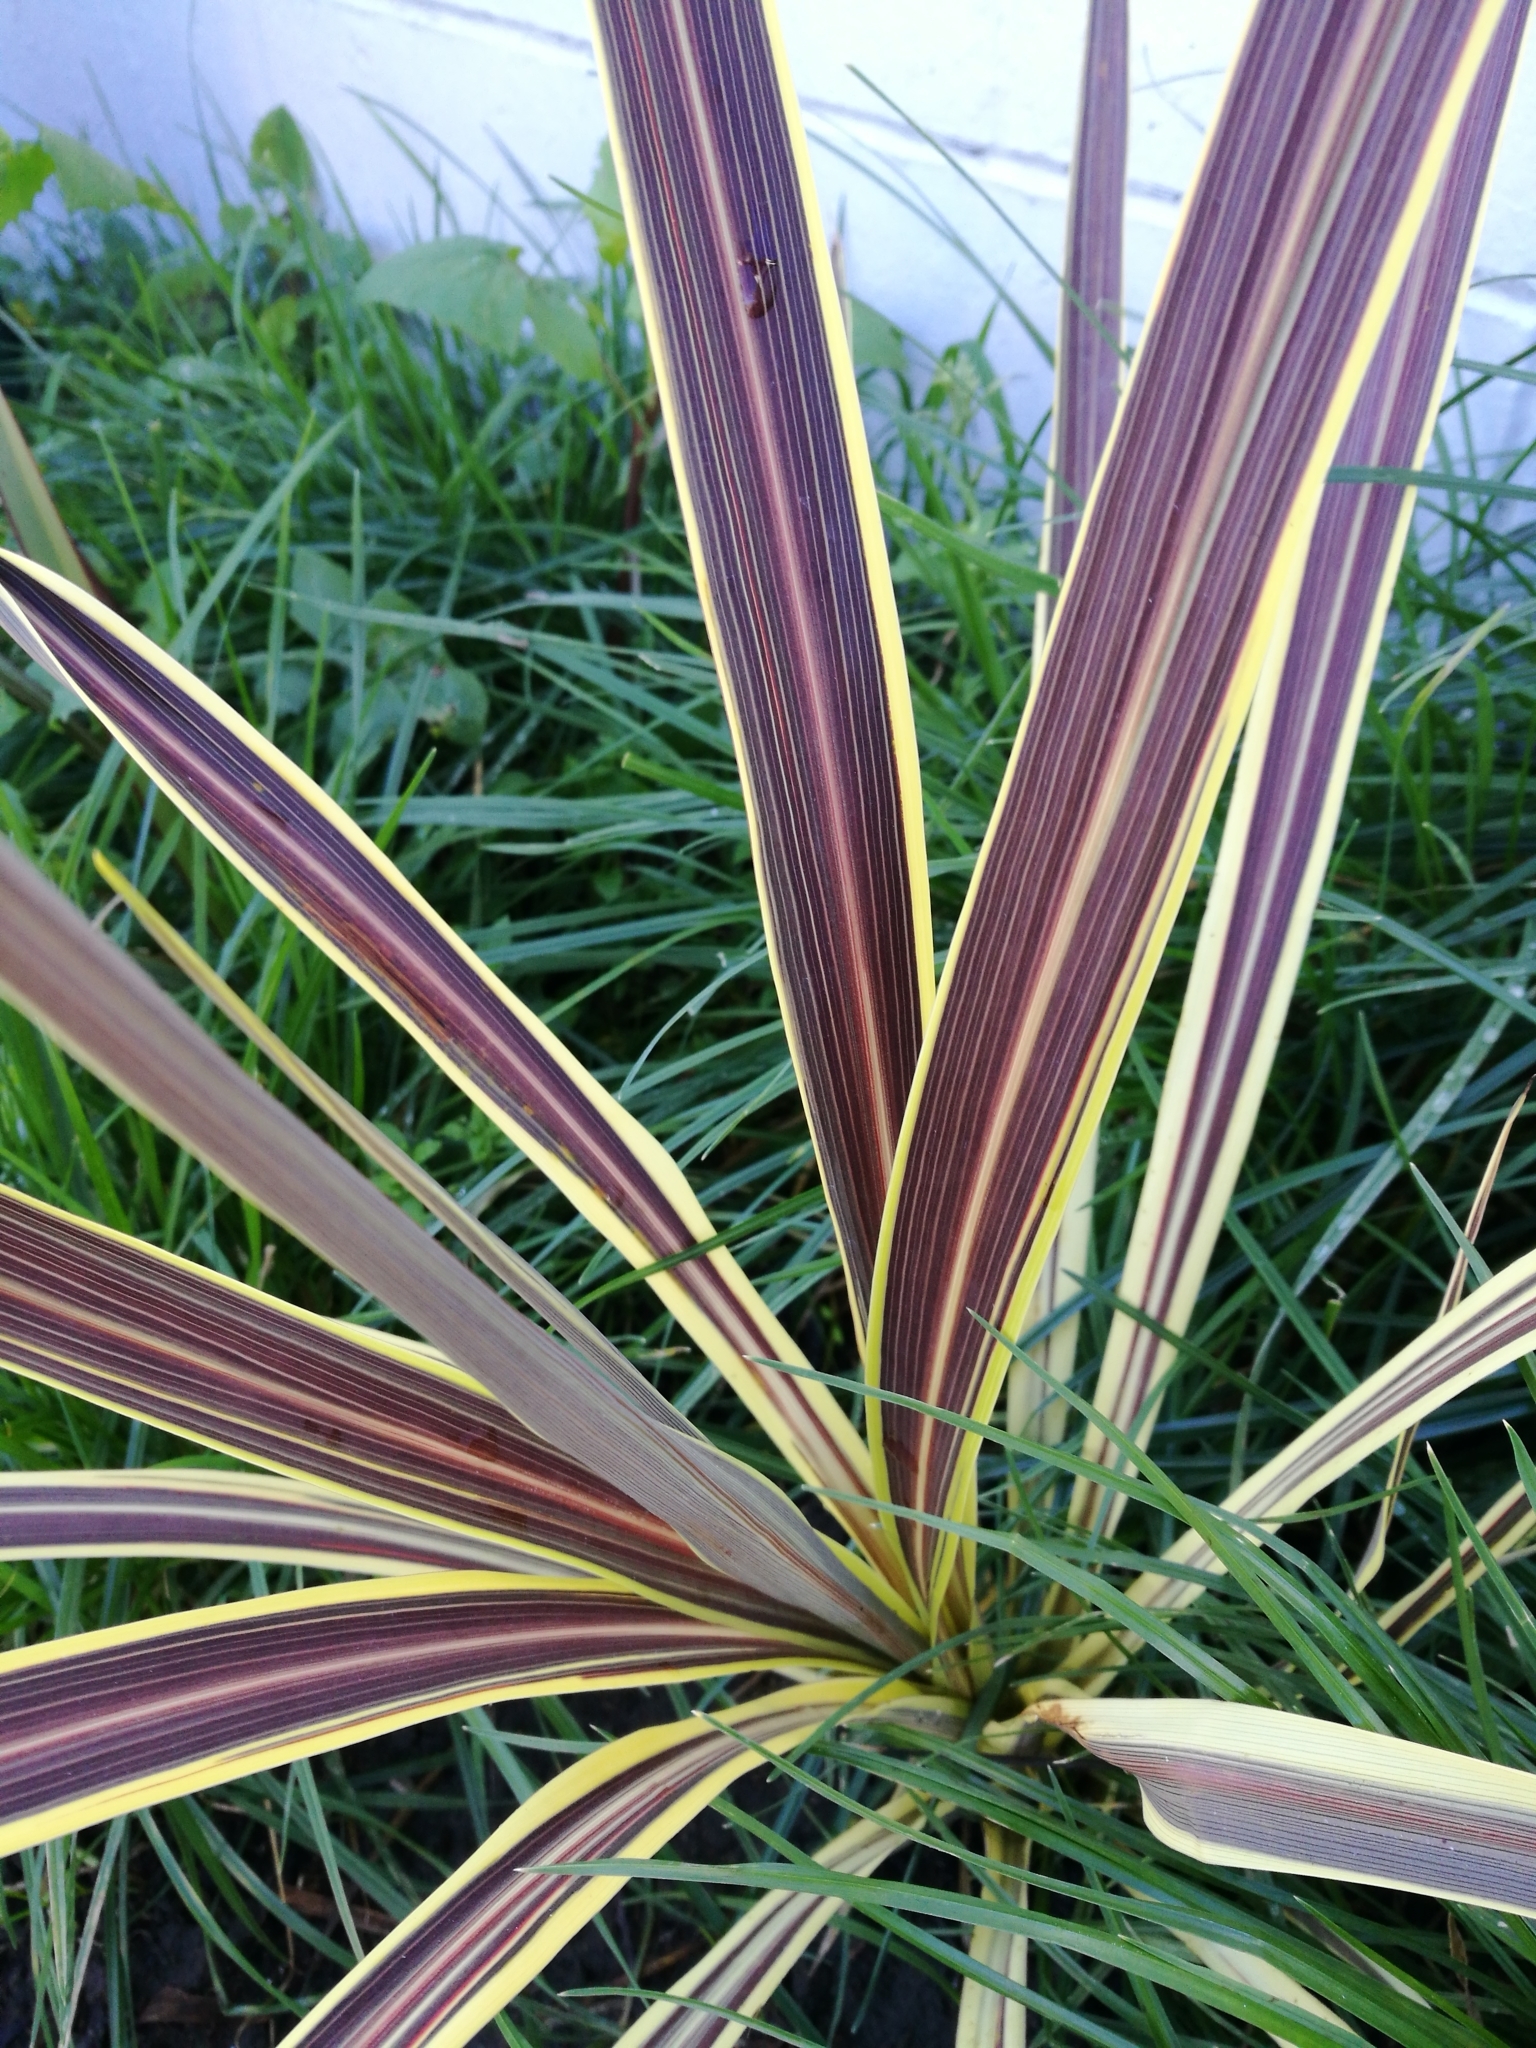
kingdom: Plantae
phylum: Tracheophyta
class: Liliopsida
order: Asparagales
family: Asparagaceae
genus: Cordyline
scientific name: Cordyline australis
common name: Cabbage-palm
